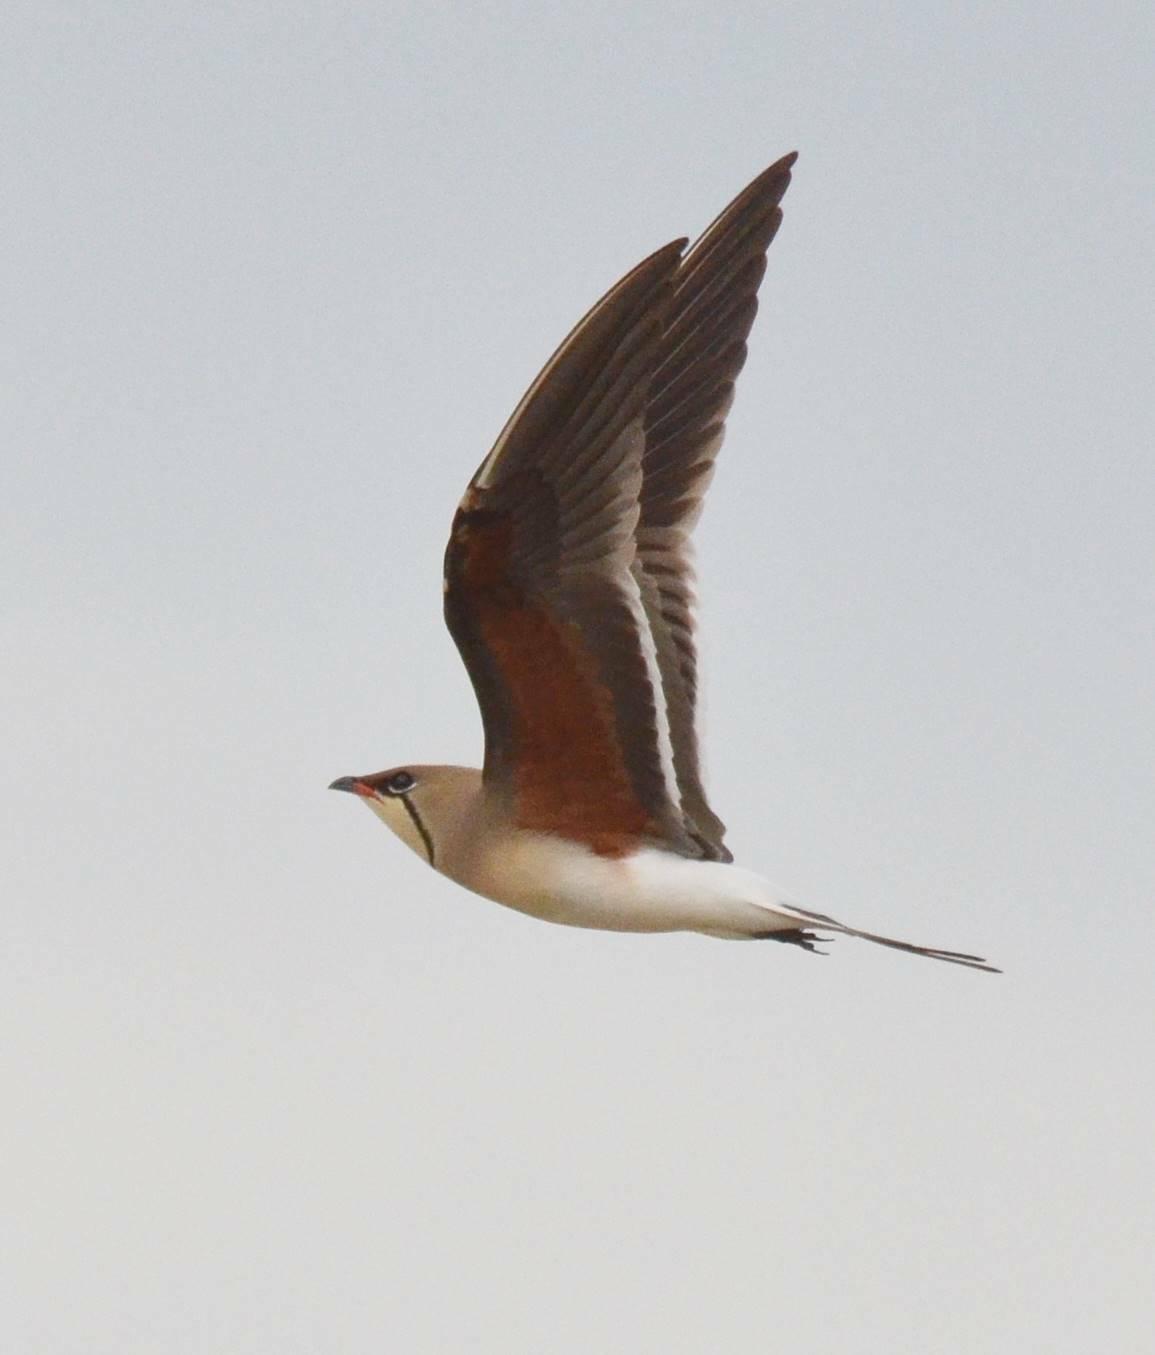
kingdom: Animalia
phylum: Chordata
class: Aves
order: Charadriiformes
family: Glareolidae
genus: Glareola
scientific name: Glareola pratincola
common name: Collared pratincole
